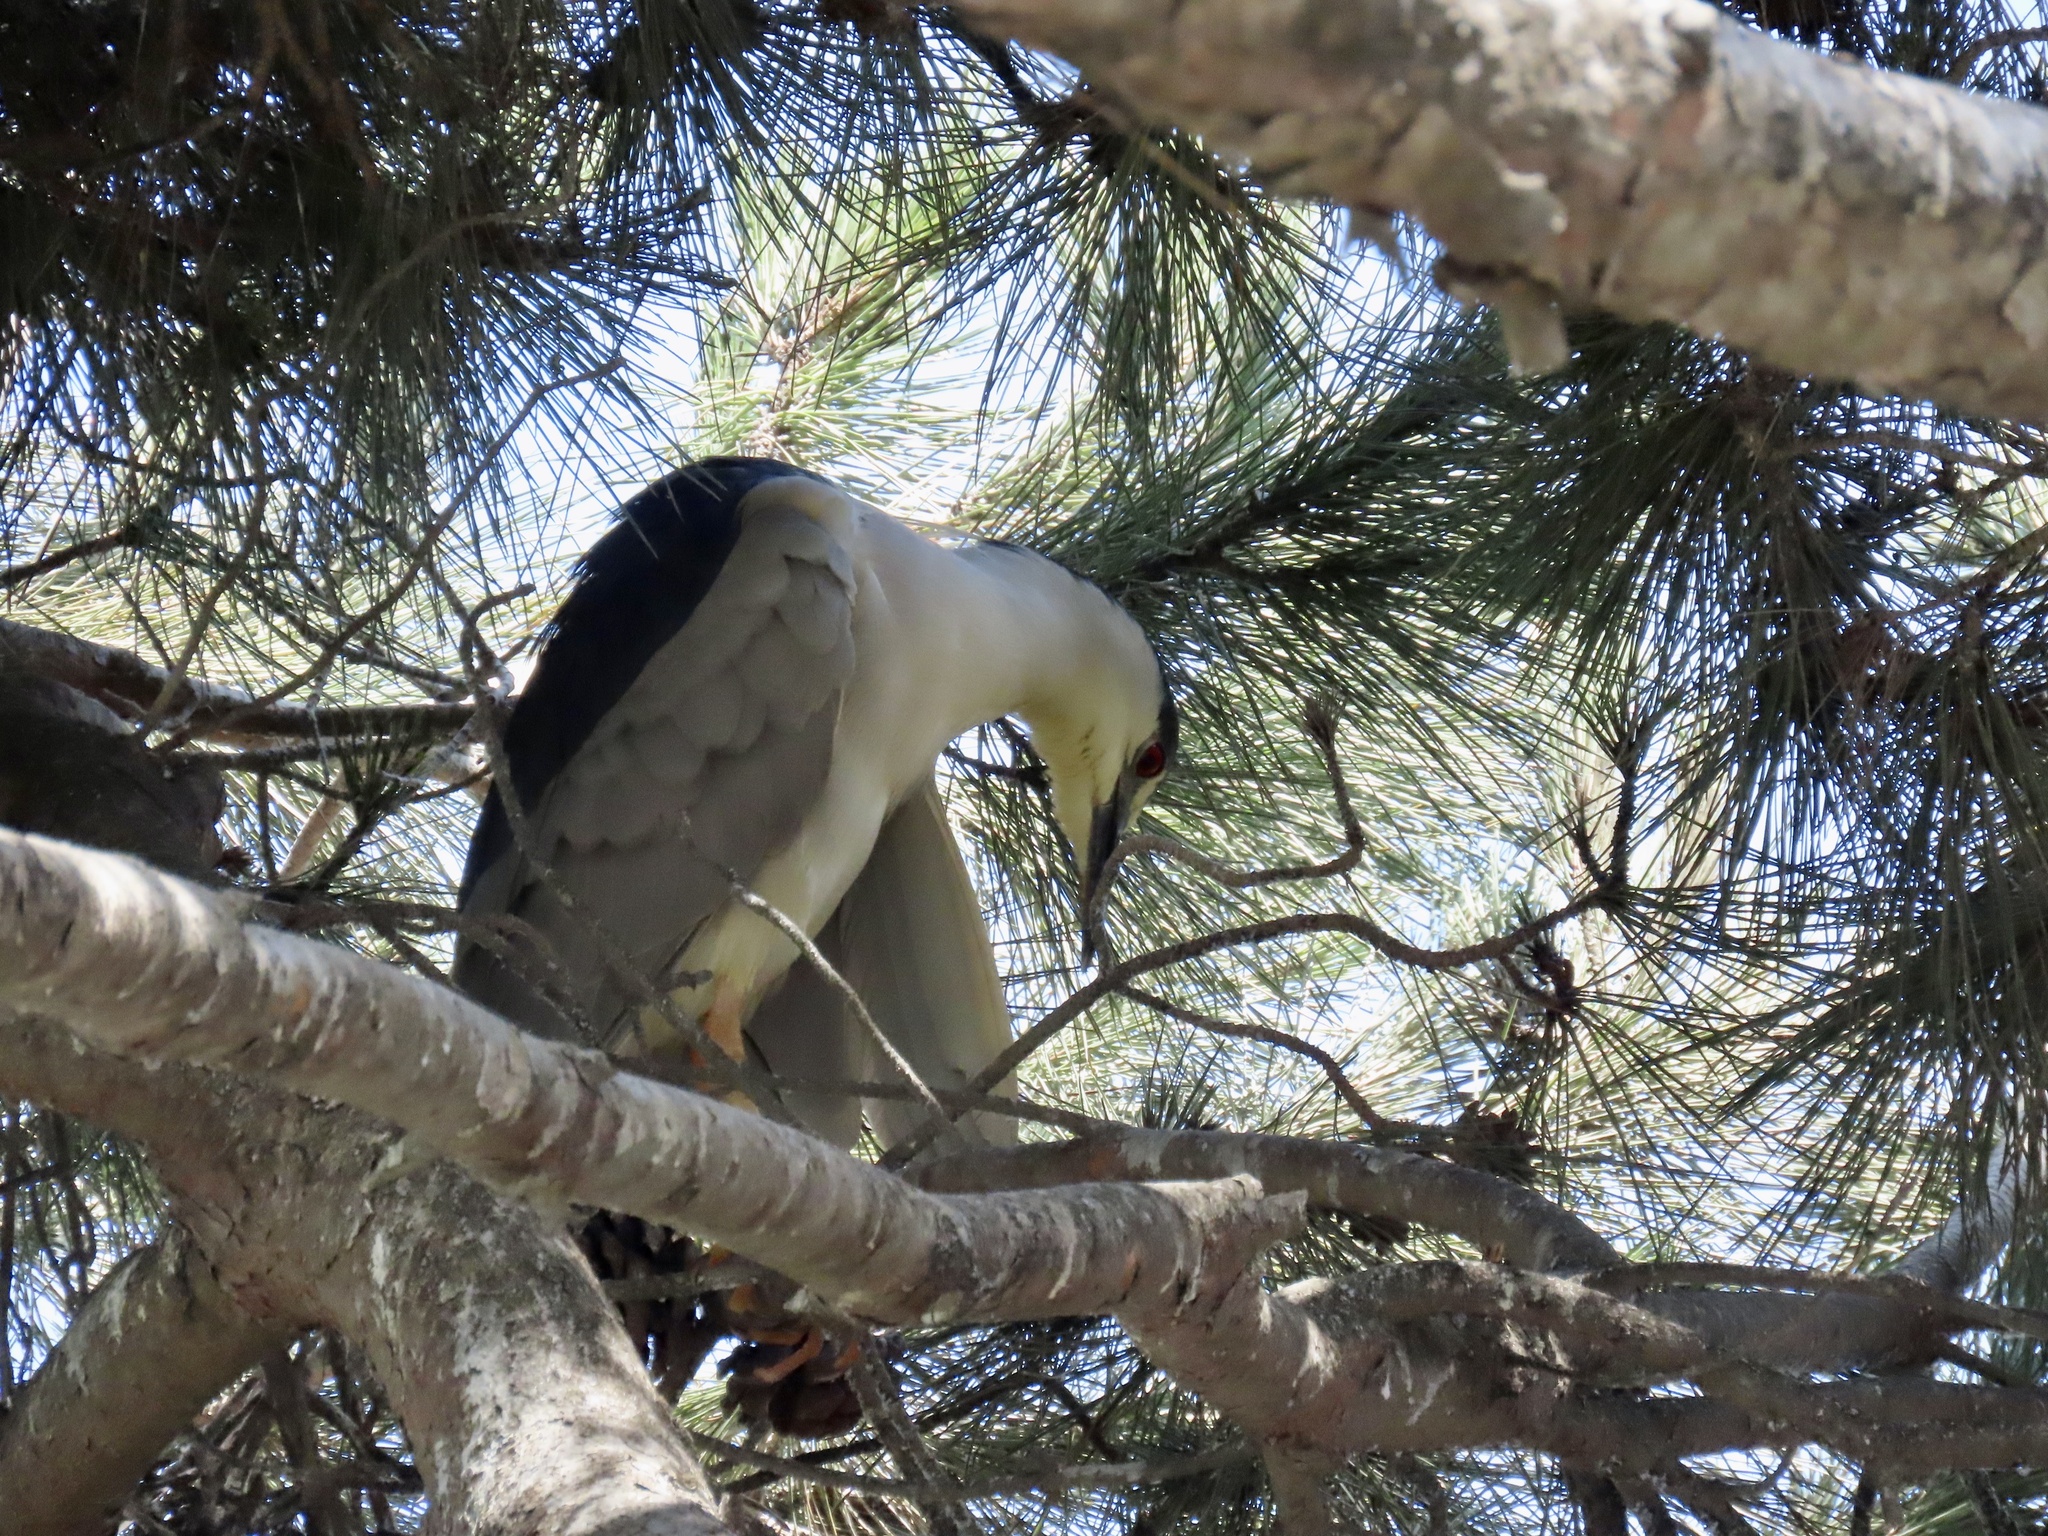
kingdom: Animalia
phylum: Chordata
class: Aves
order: Pelecaniformes
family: Ardeidae
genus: Nycticorax
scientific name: Nycticorax nycticorax
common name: Black-crowned night heron
